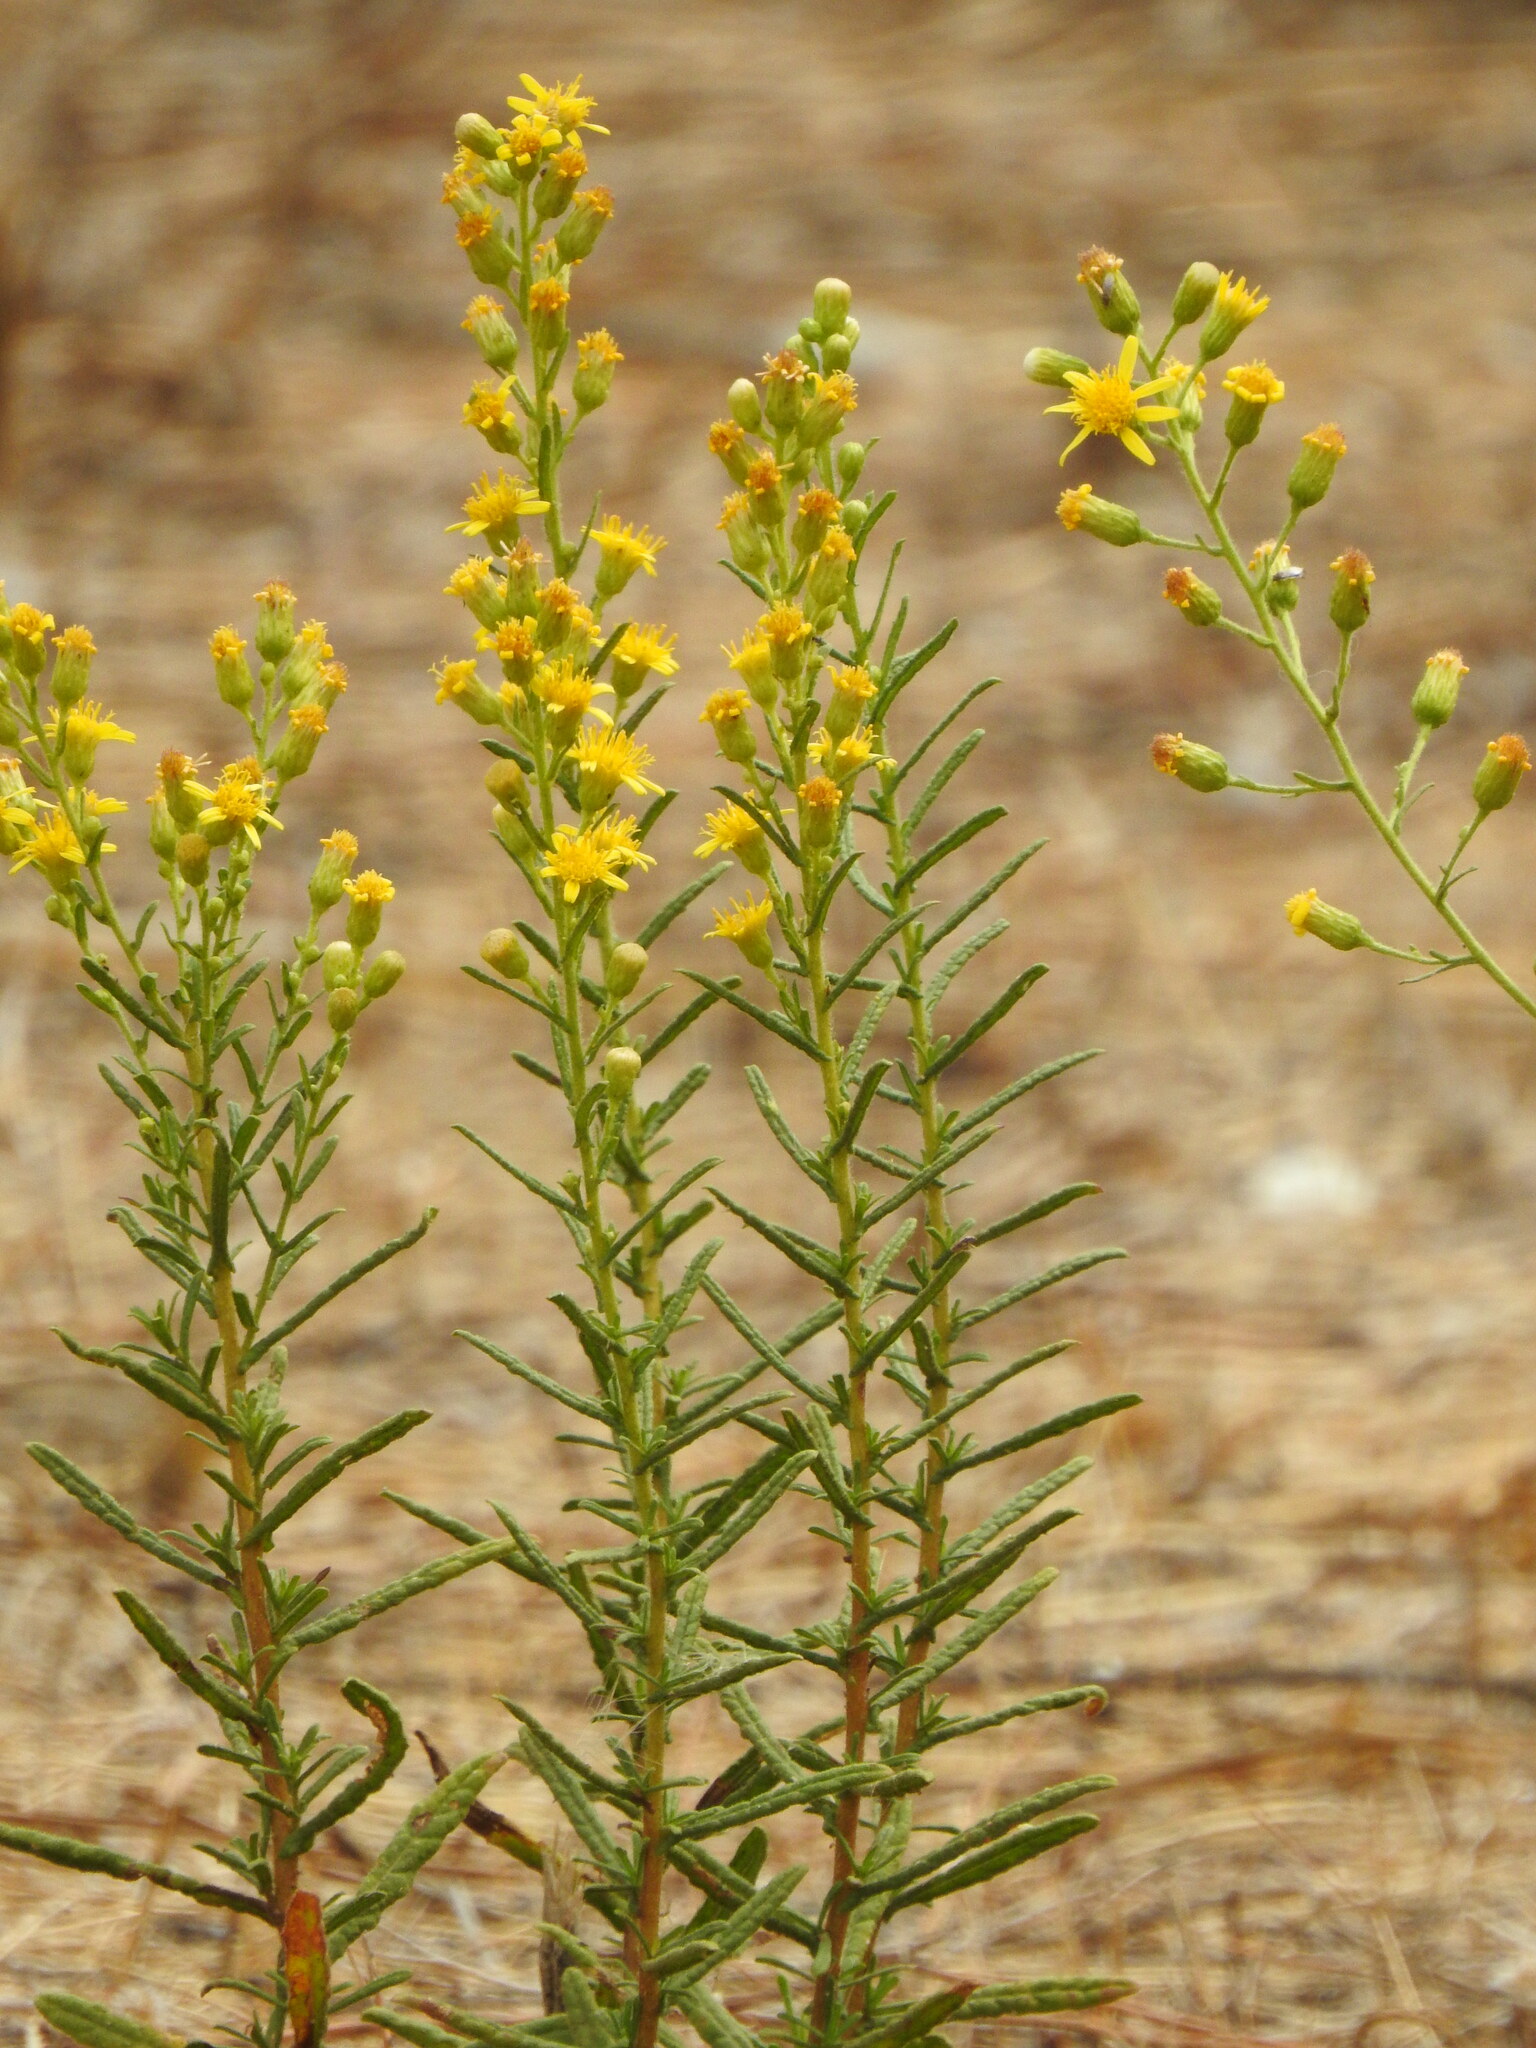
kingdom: Plantae
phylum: Tracheophyta
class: Magnoliopsida
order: Asterales
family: Asteraceae
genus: Dittrichia
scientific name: Dittrichia viscosa
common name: Woody fleabane
